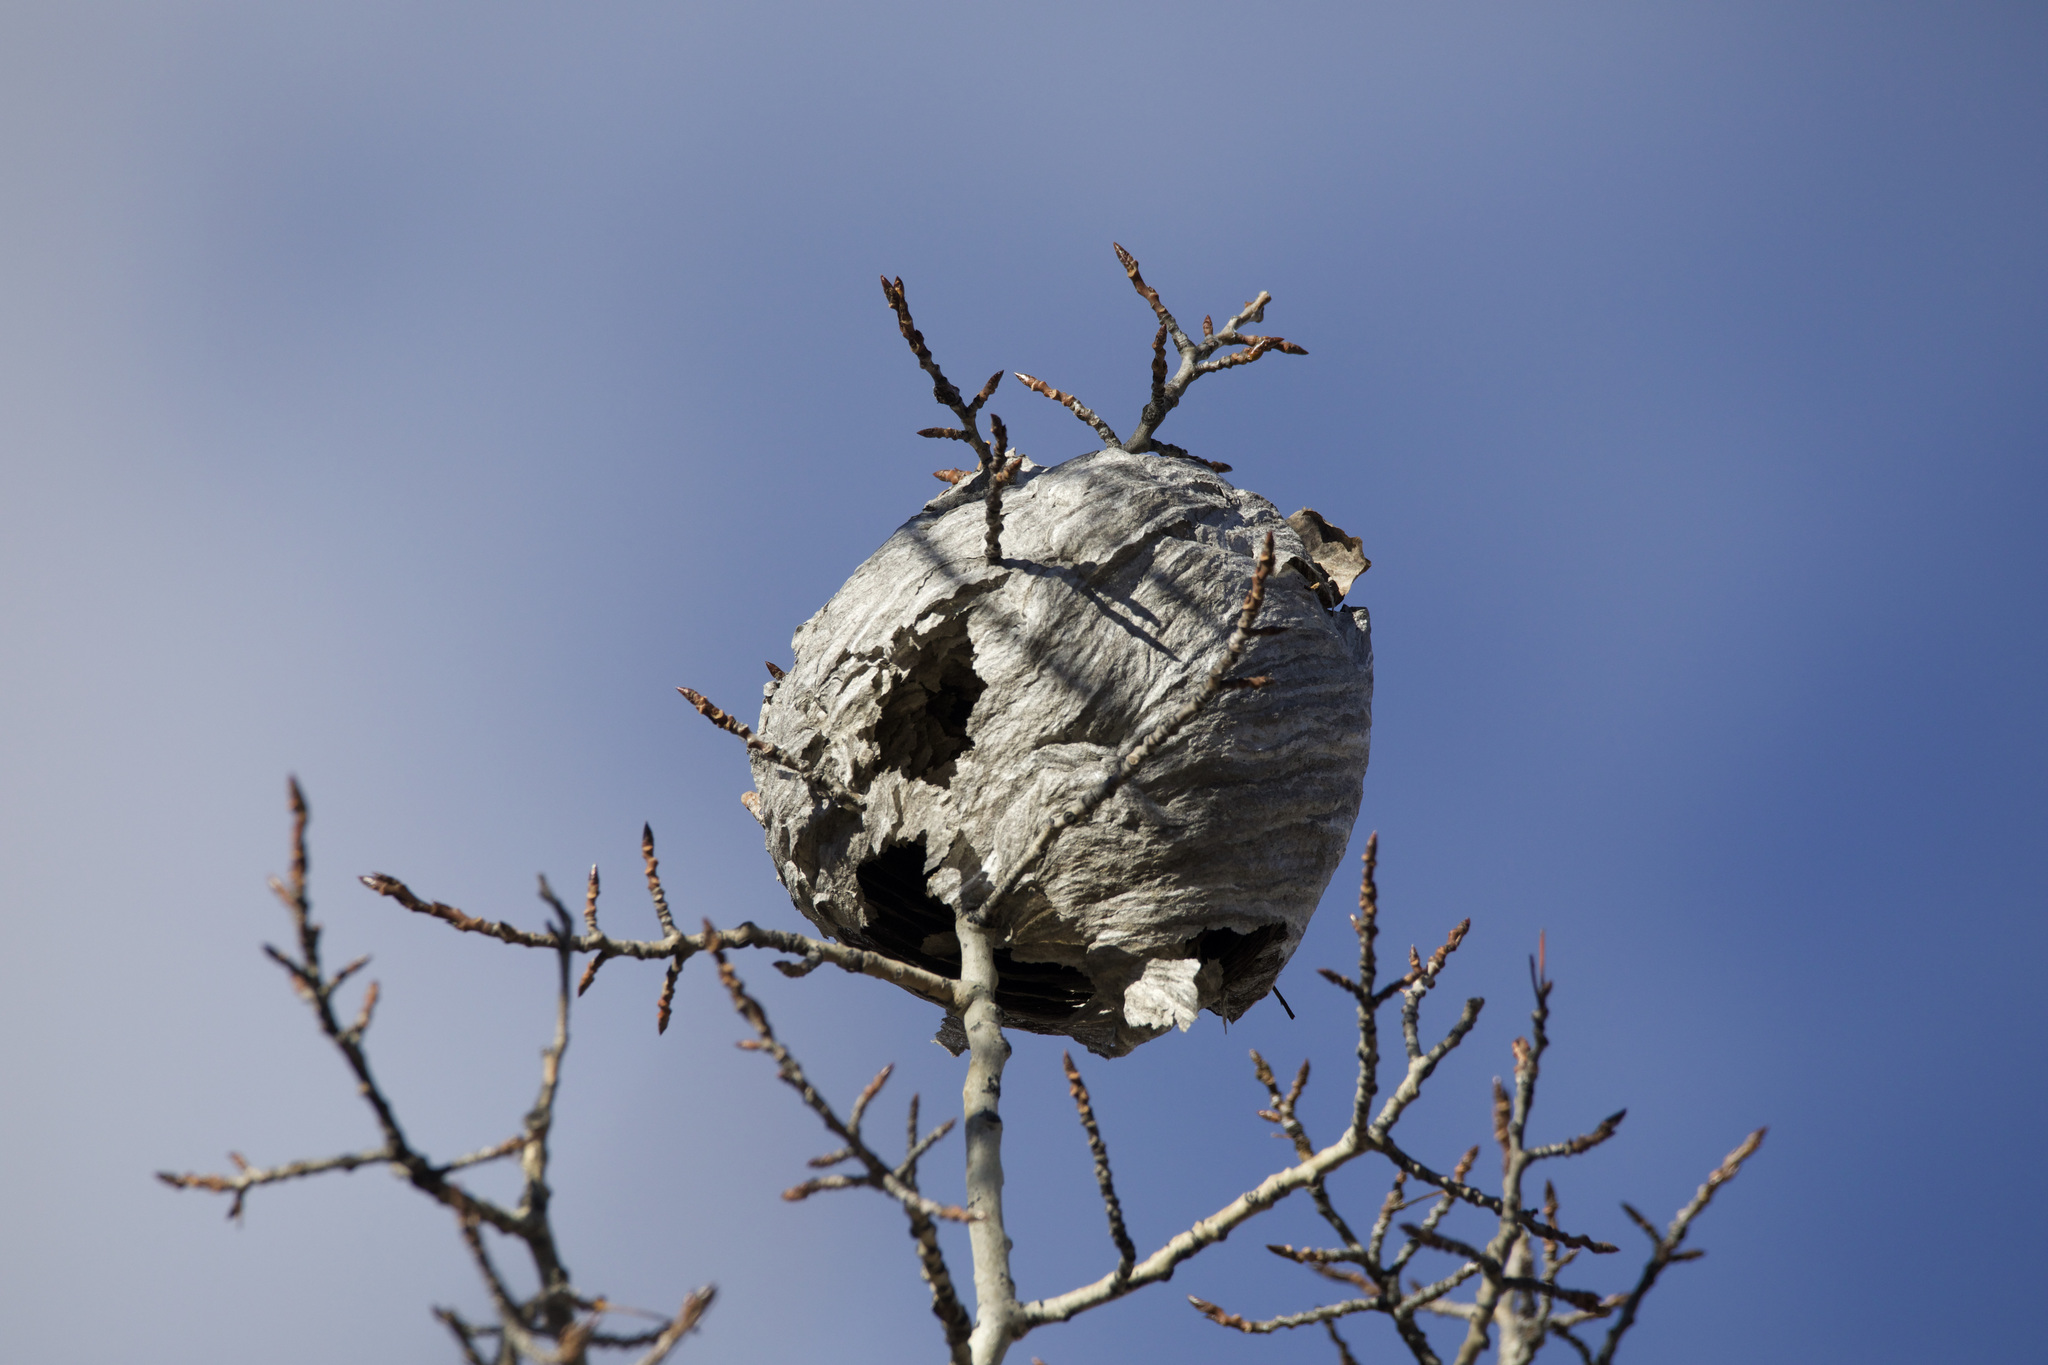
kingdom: Animalia
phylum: Arthropoda
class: Insecta
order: Hymenoptera
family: Vespidae
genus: Dolichovespula
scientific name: Dolichovespula
